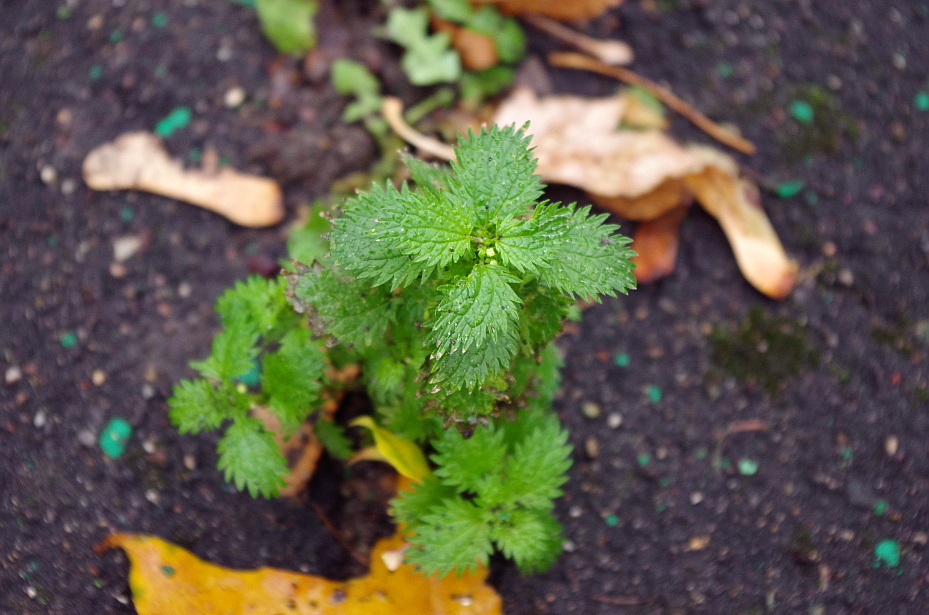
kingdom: Plantae
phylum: Tracheophyta
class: Magnoliopsida
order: Rosales
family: Urticaceae
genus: Urtica
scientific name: Urtica urens
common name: Dwarf nettle
